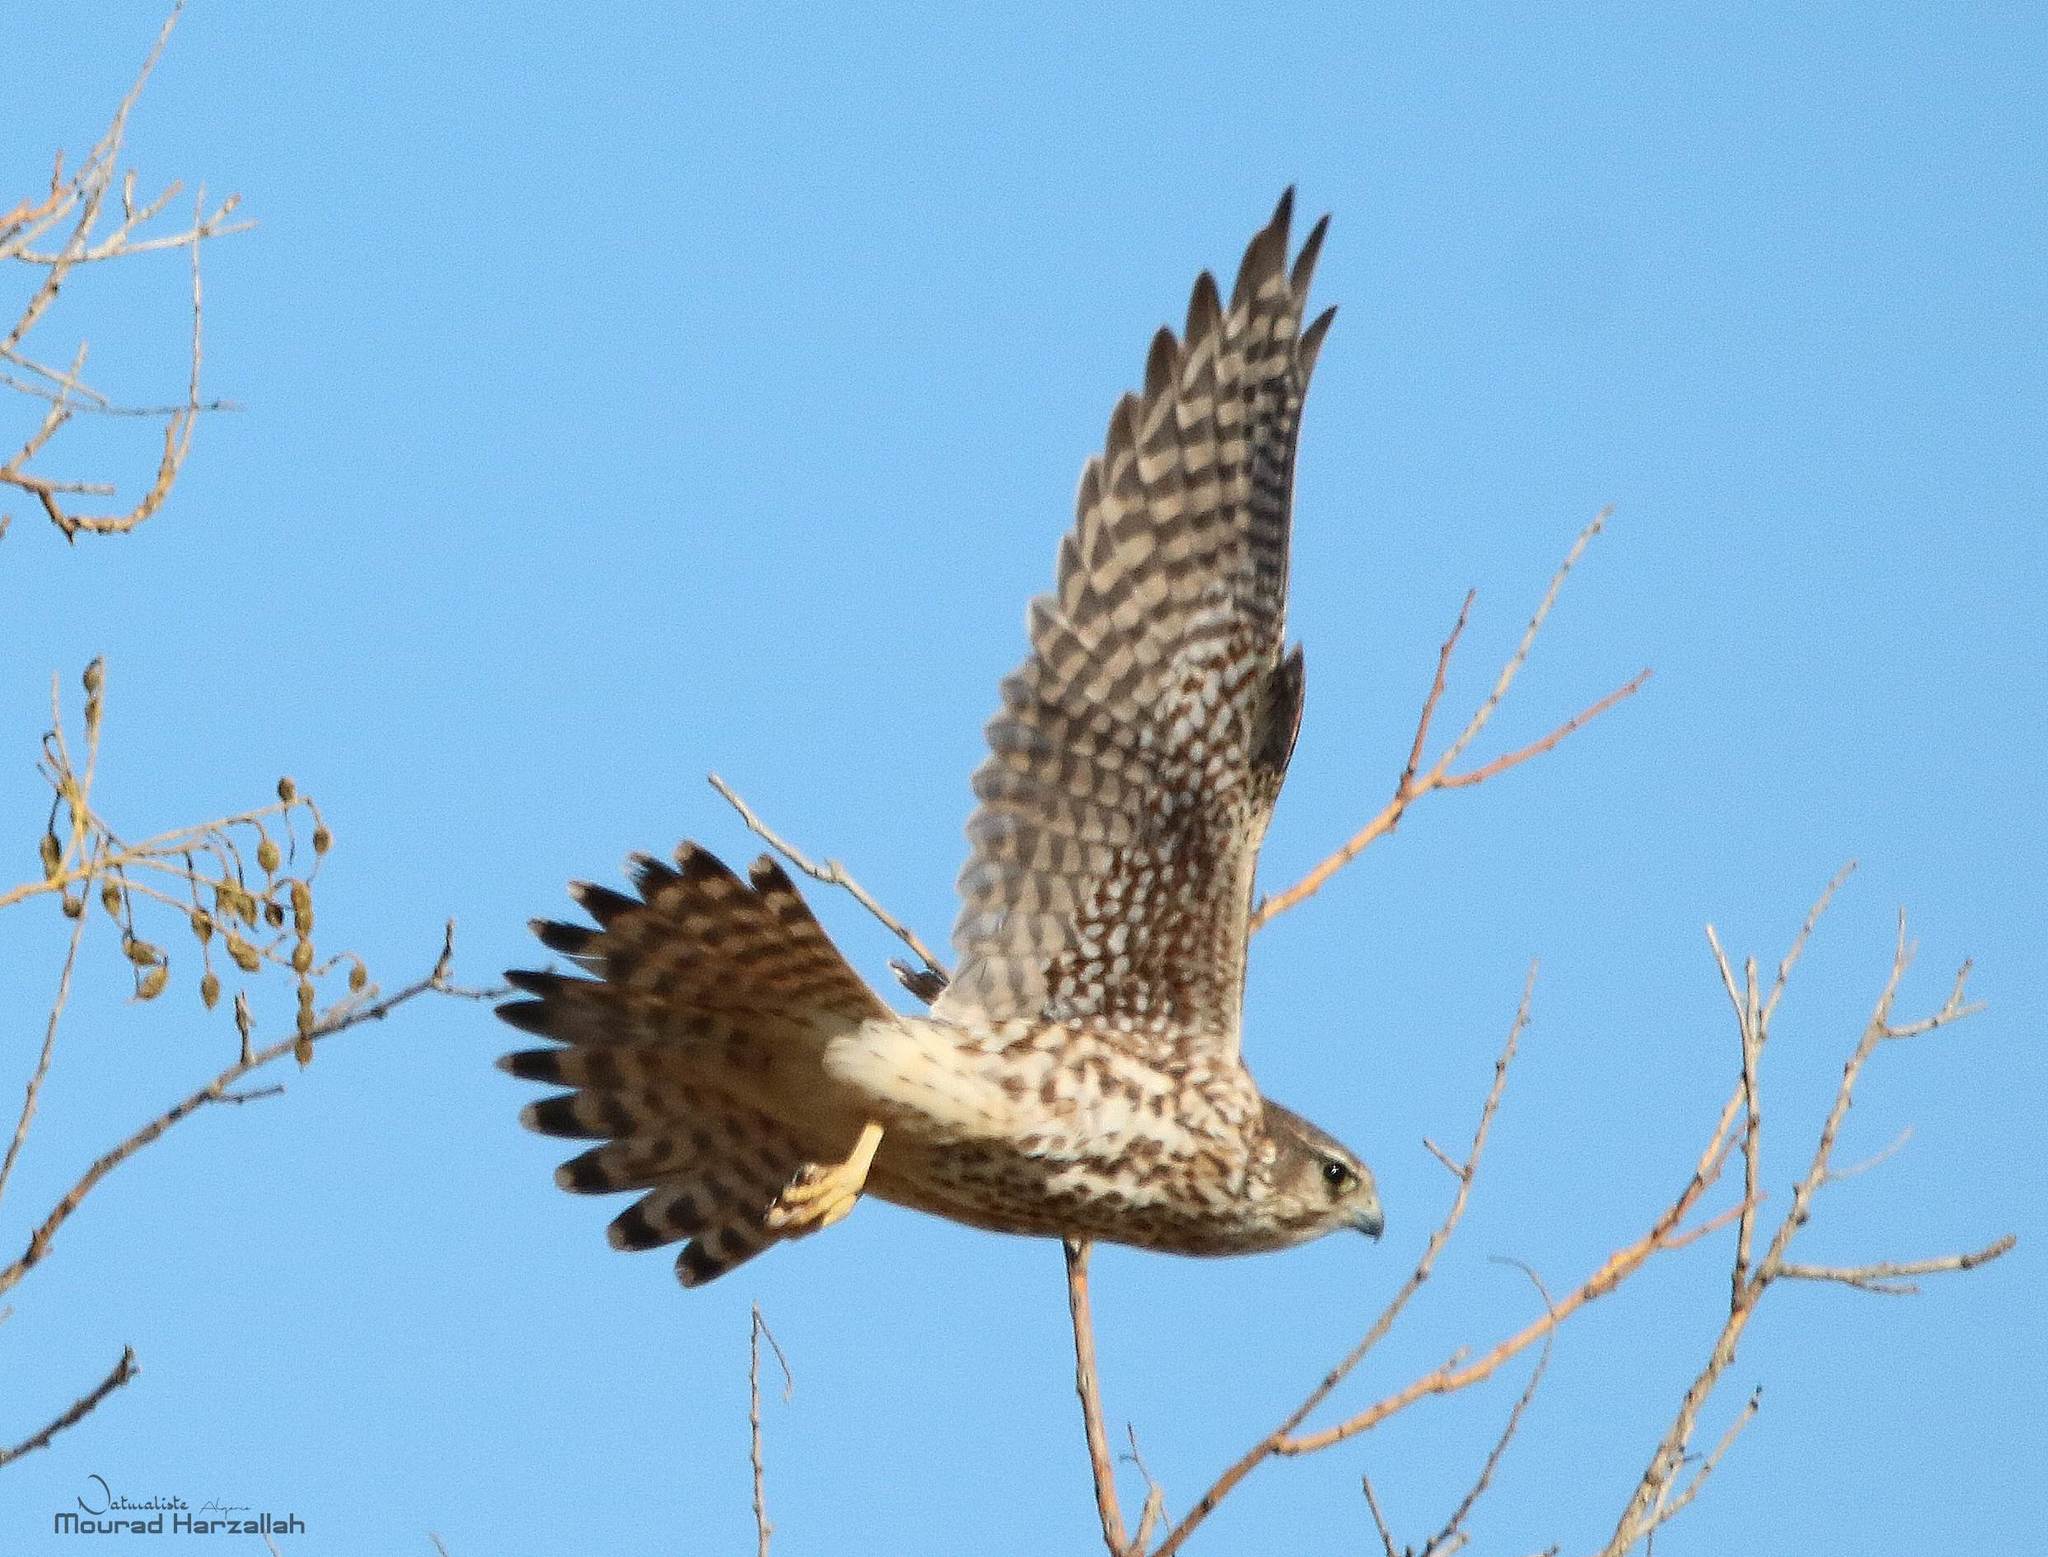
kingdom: Animalia
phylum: Chordata
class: Aves
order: Falconiformes
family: Falconidae
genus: Falco
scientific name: Falco columbarius
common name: Merlin
